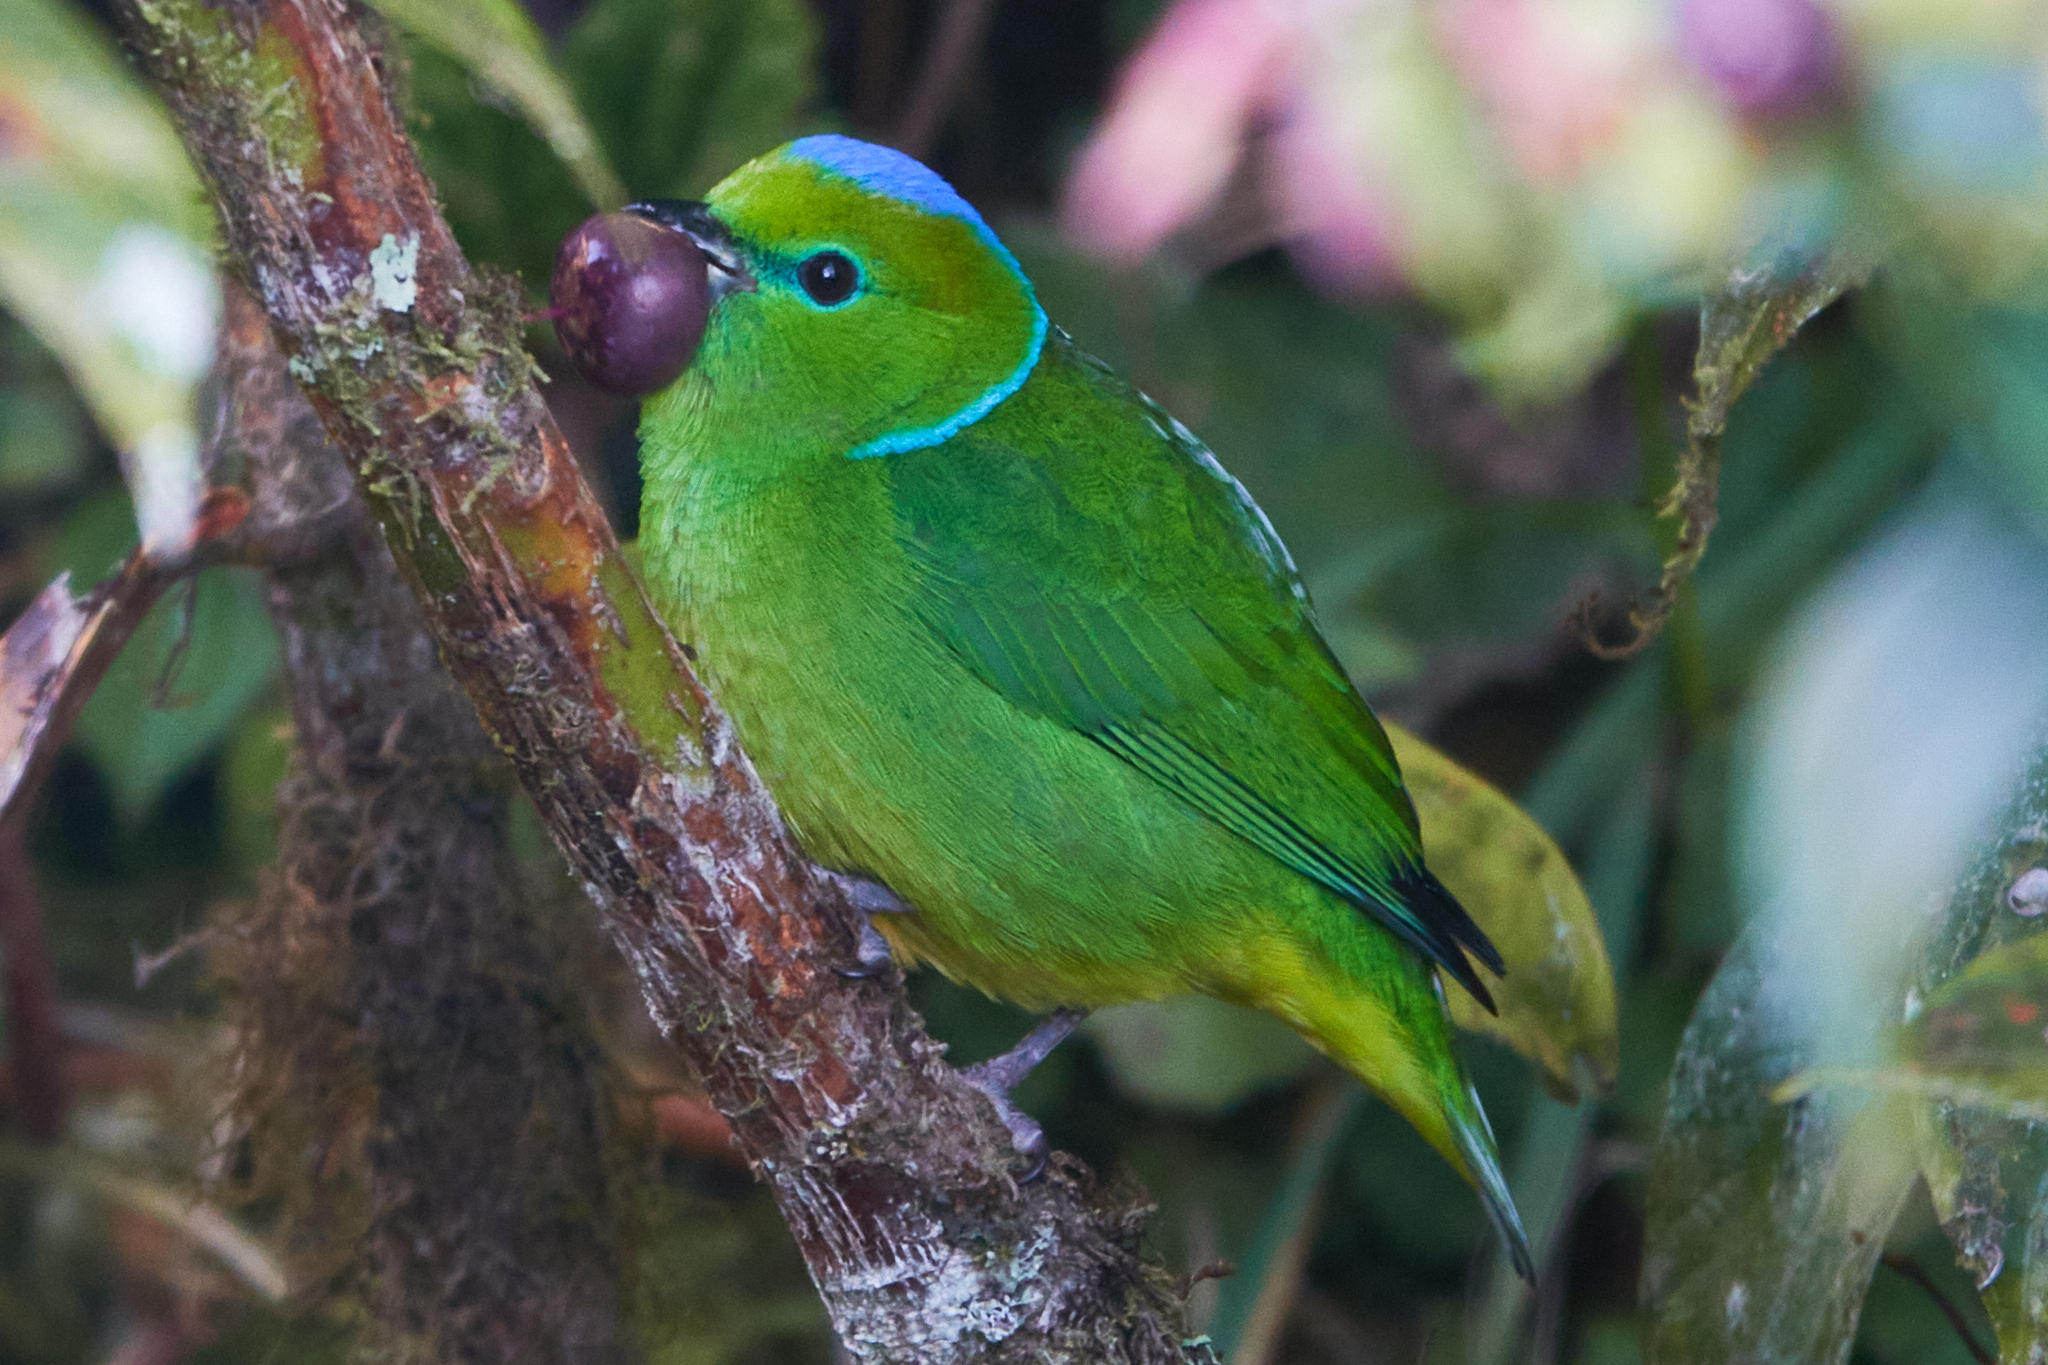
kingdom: Animalia
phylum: Chordata
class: Aves
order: Passeriformes
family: Fringillidae
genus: Chlorophonia
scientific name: Chlorophonia callophrys
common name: Golden-browed chlorophonia
